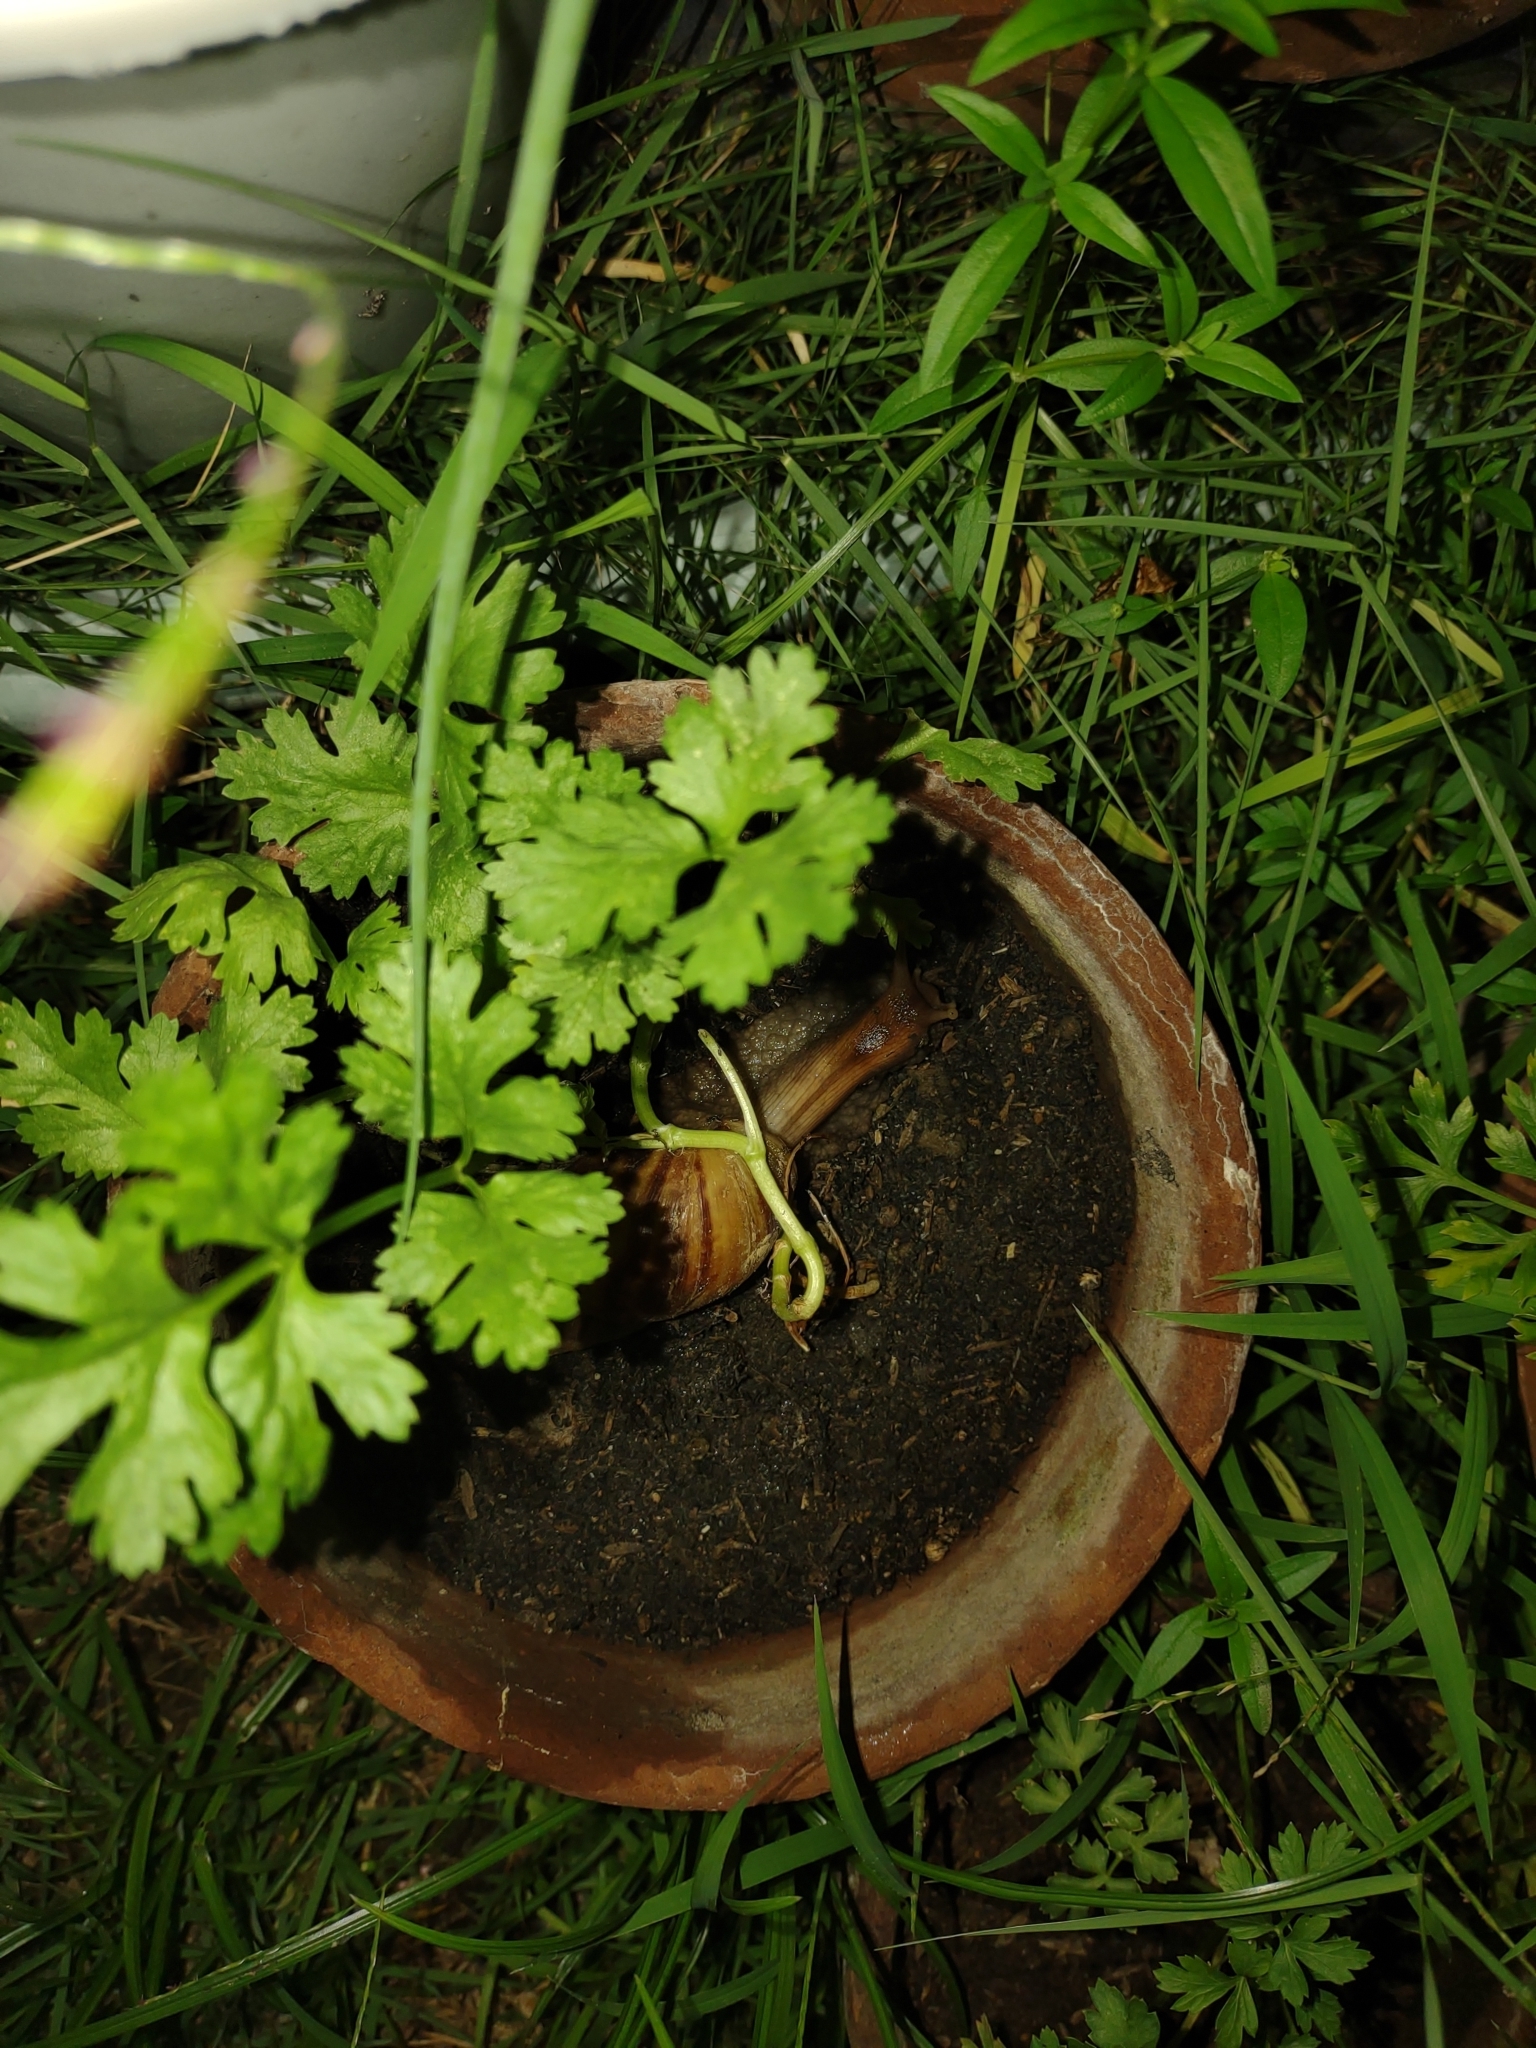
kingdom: Animalia
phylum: Mollusca
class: Gastropoda
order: Stylommatophora
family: Achatinidae
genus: Lissachatina
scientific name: Lissachatina fulica
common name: Giant african snail
